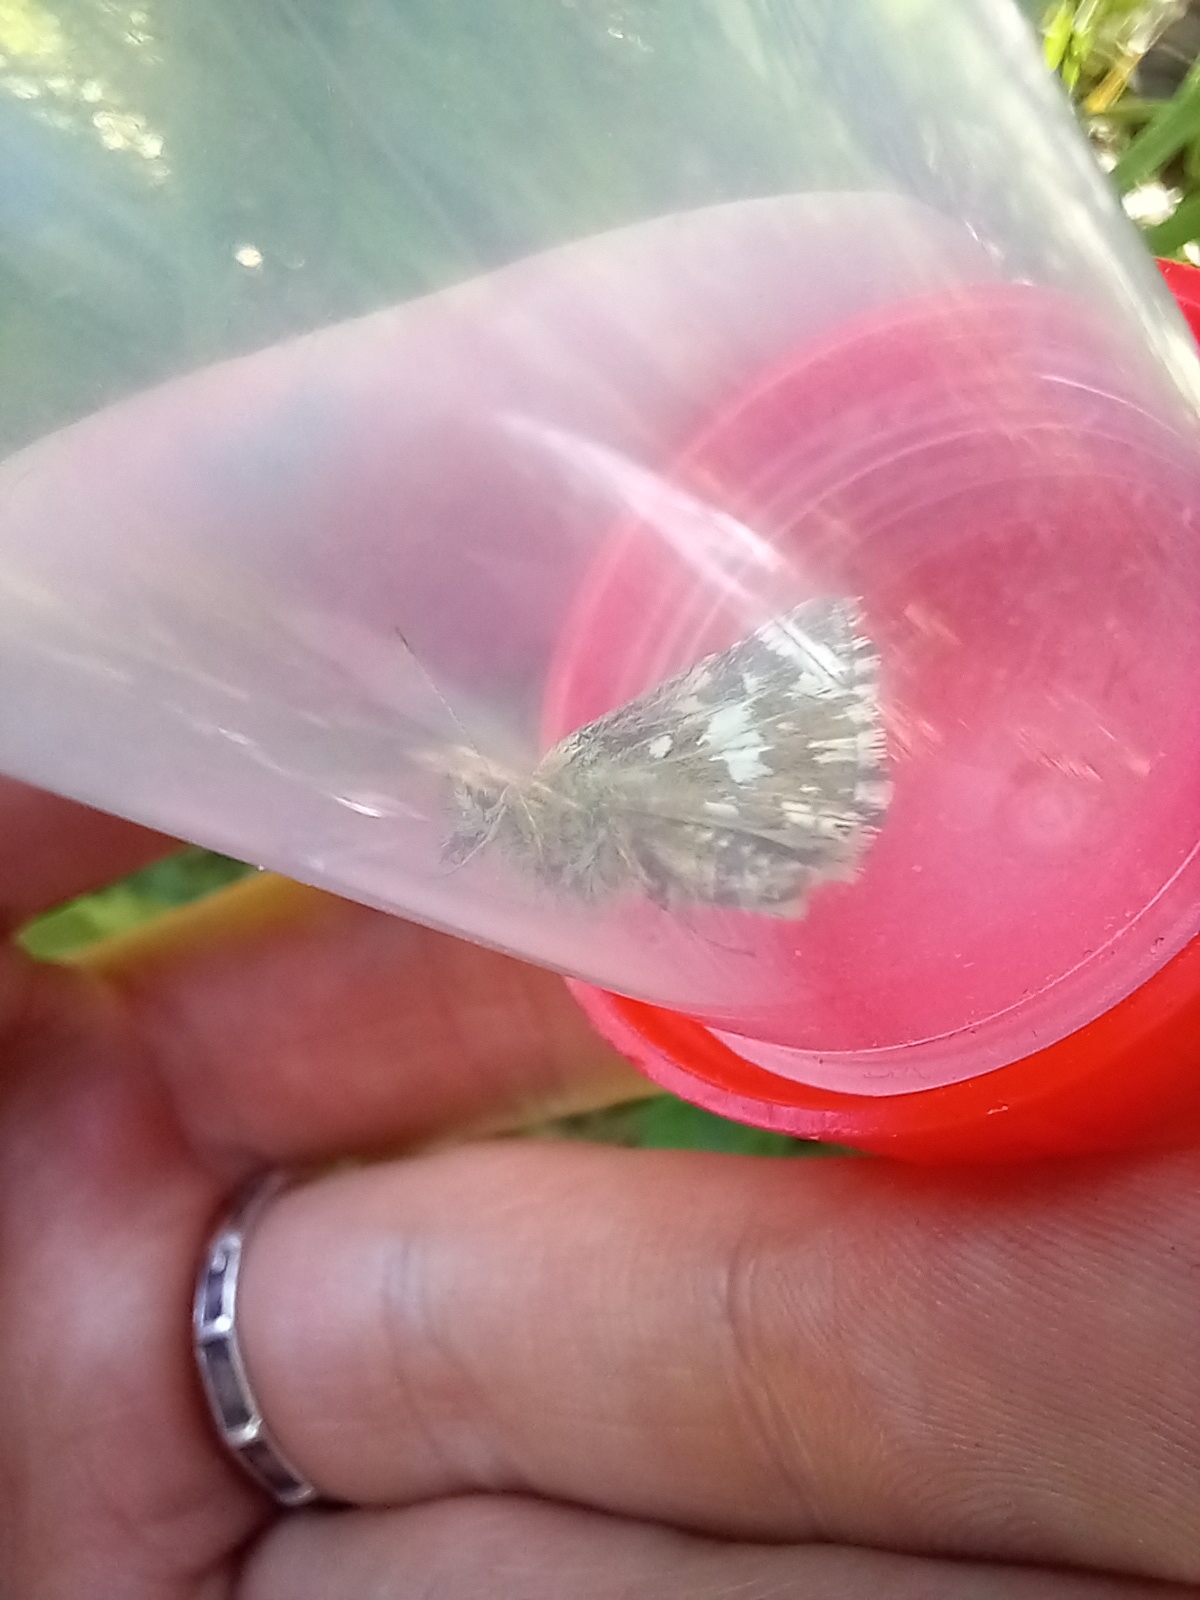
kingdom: Animalia
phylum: Arthropoda
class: Insecta
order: Lepidoptera
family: Hesperiidae
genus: Pyrgus
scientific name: Pyrgus malvae
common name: Grizzled skipper
